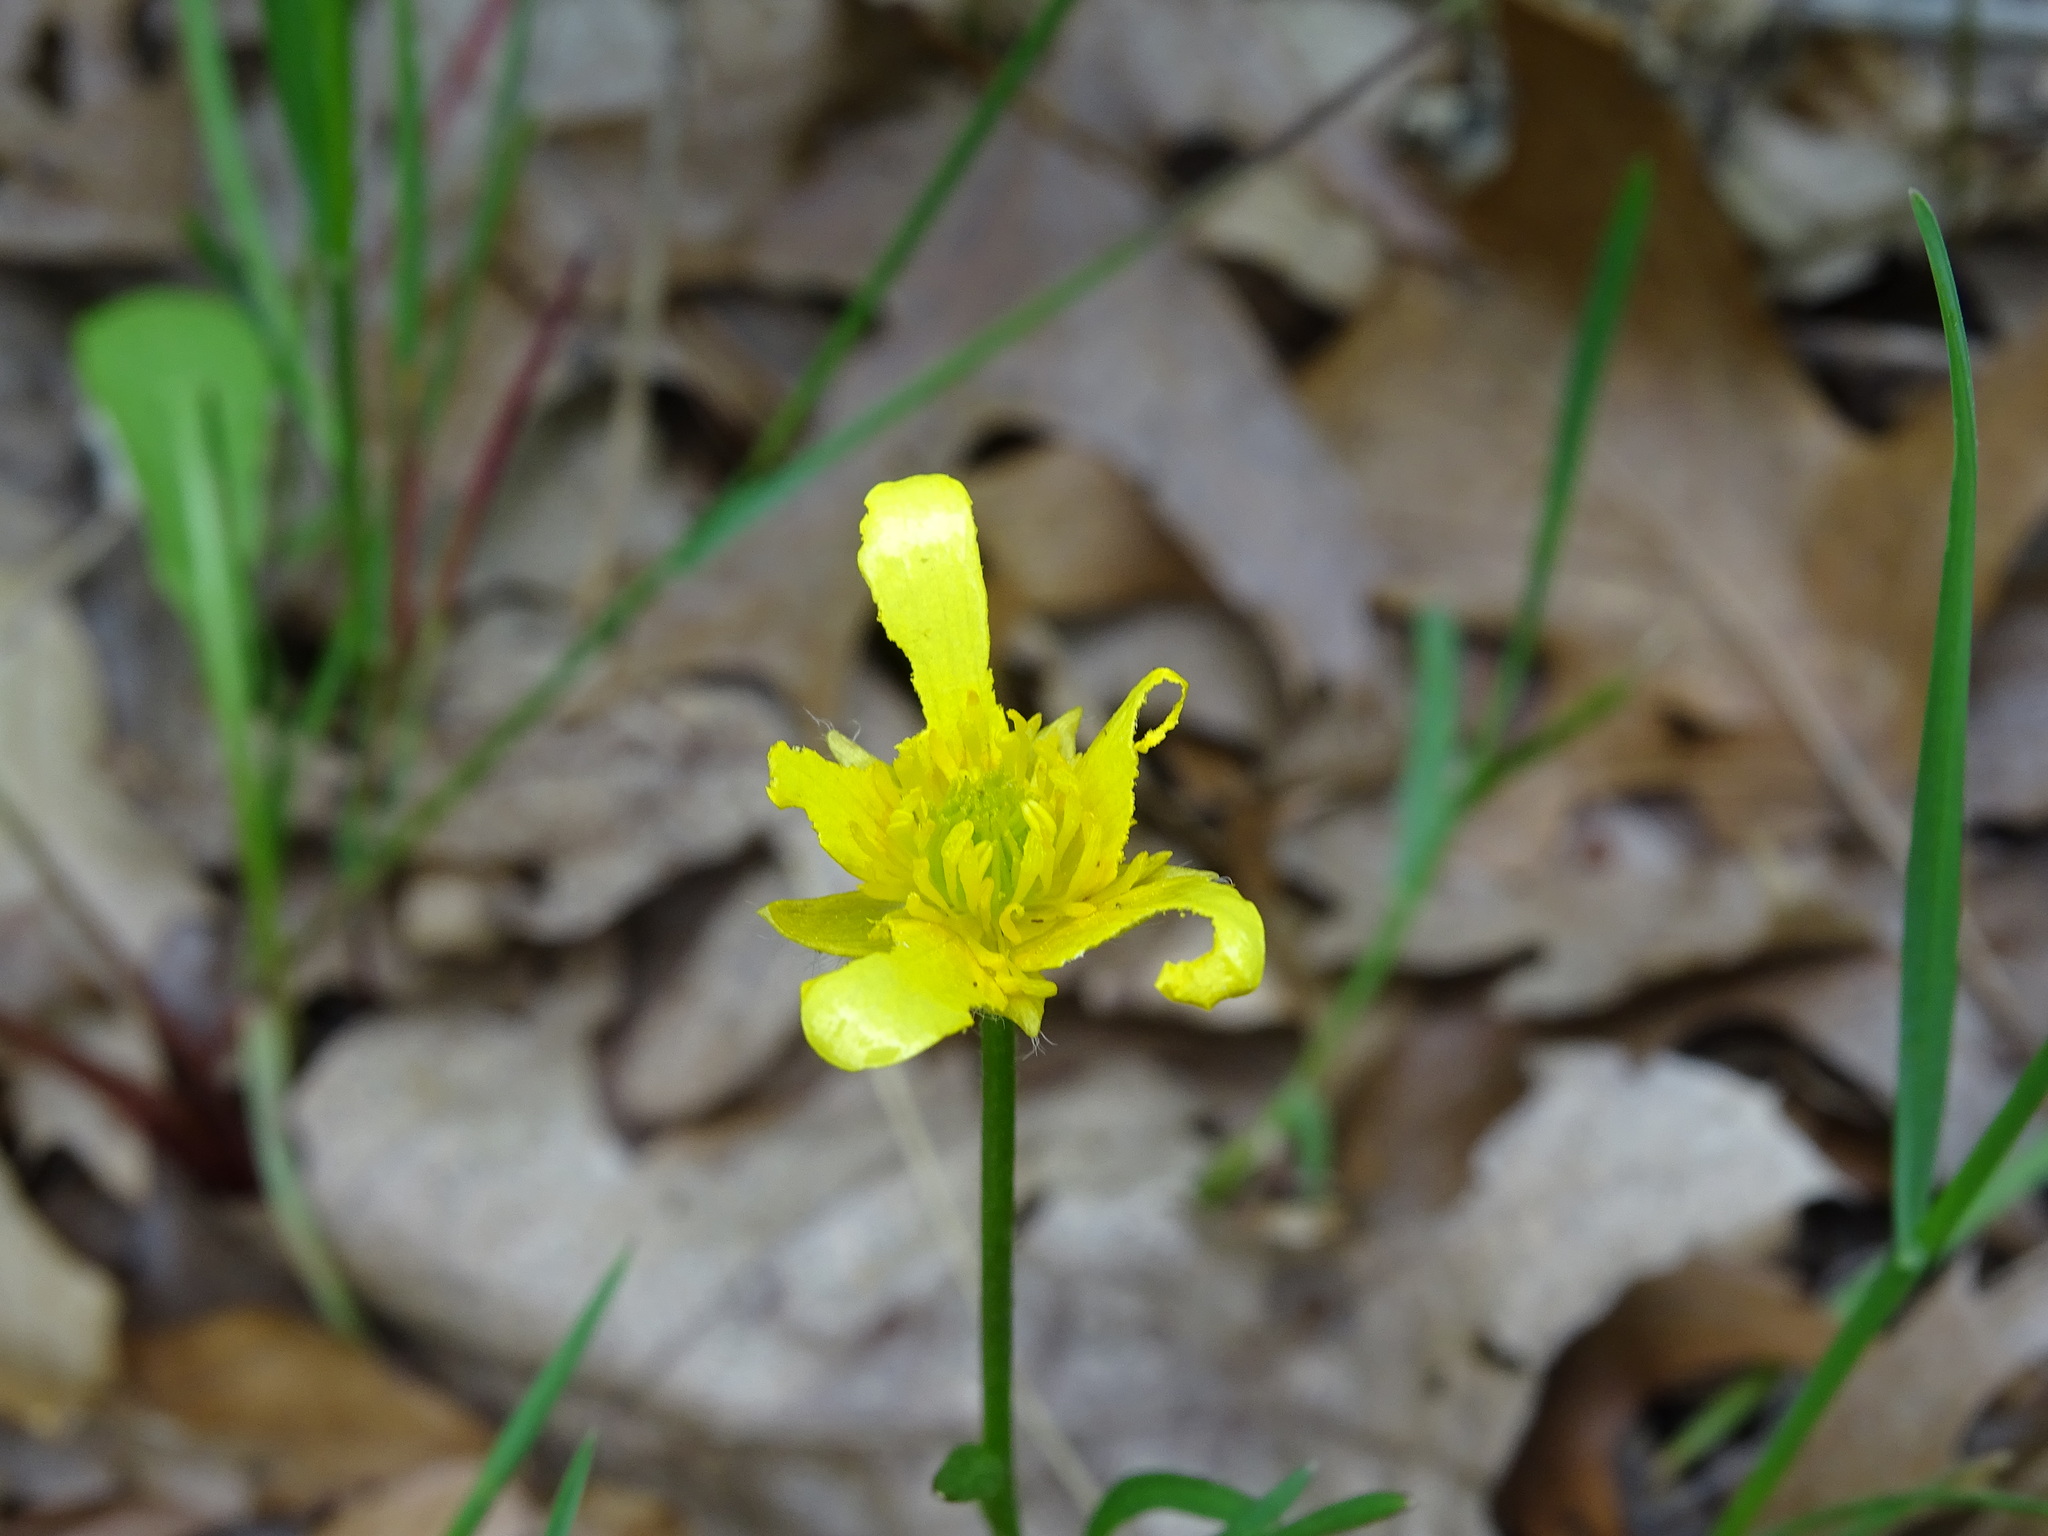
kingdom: Plantae
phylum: Tracheophyta
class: Magnoliopsida
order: Ranunculales
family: Ranunculaceae
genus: Ranunculus
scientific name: Ranunculus fascicularis
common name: Early buttercup
